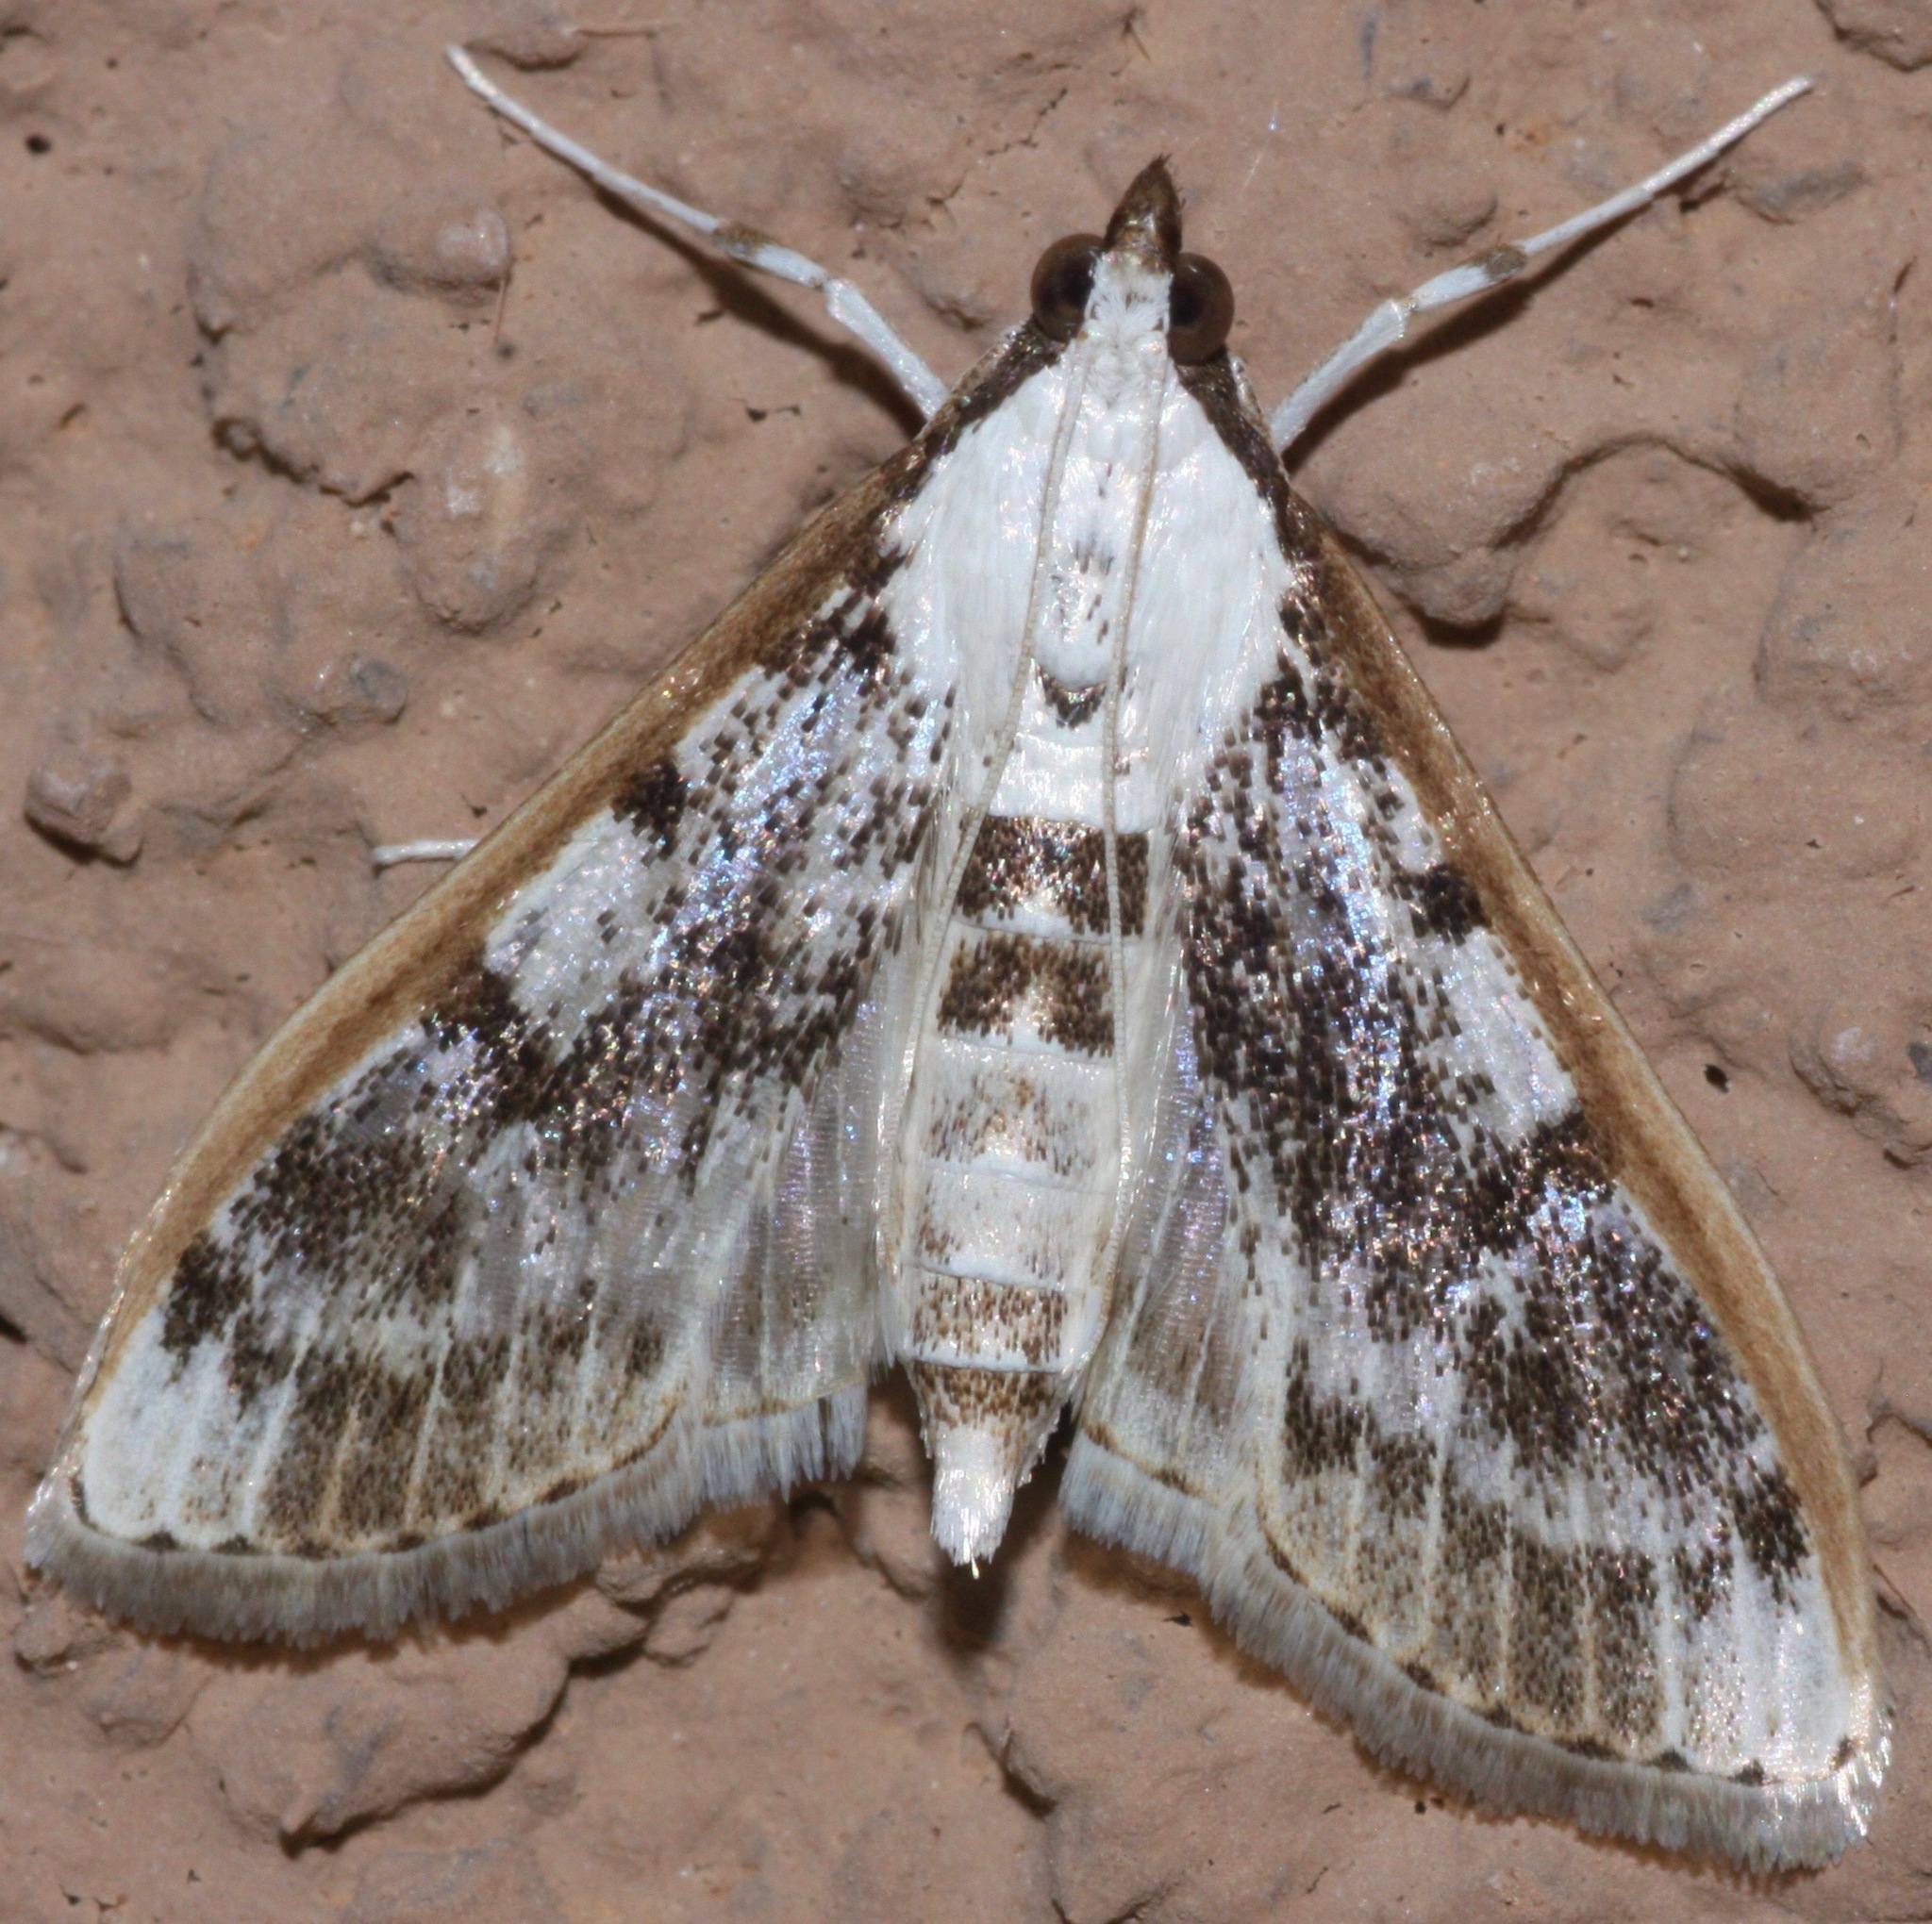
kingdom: Animalia
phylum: Arthropoda
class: Insecta
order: Lepidoptera
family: Crambidae
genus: Palpita
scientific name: Palpita gracilalis
